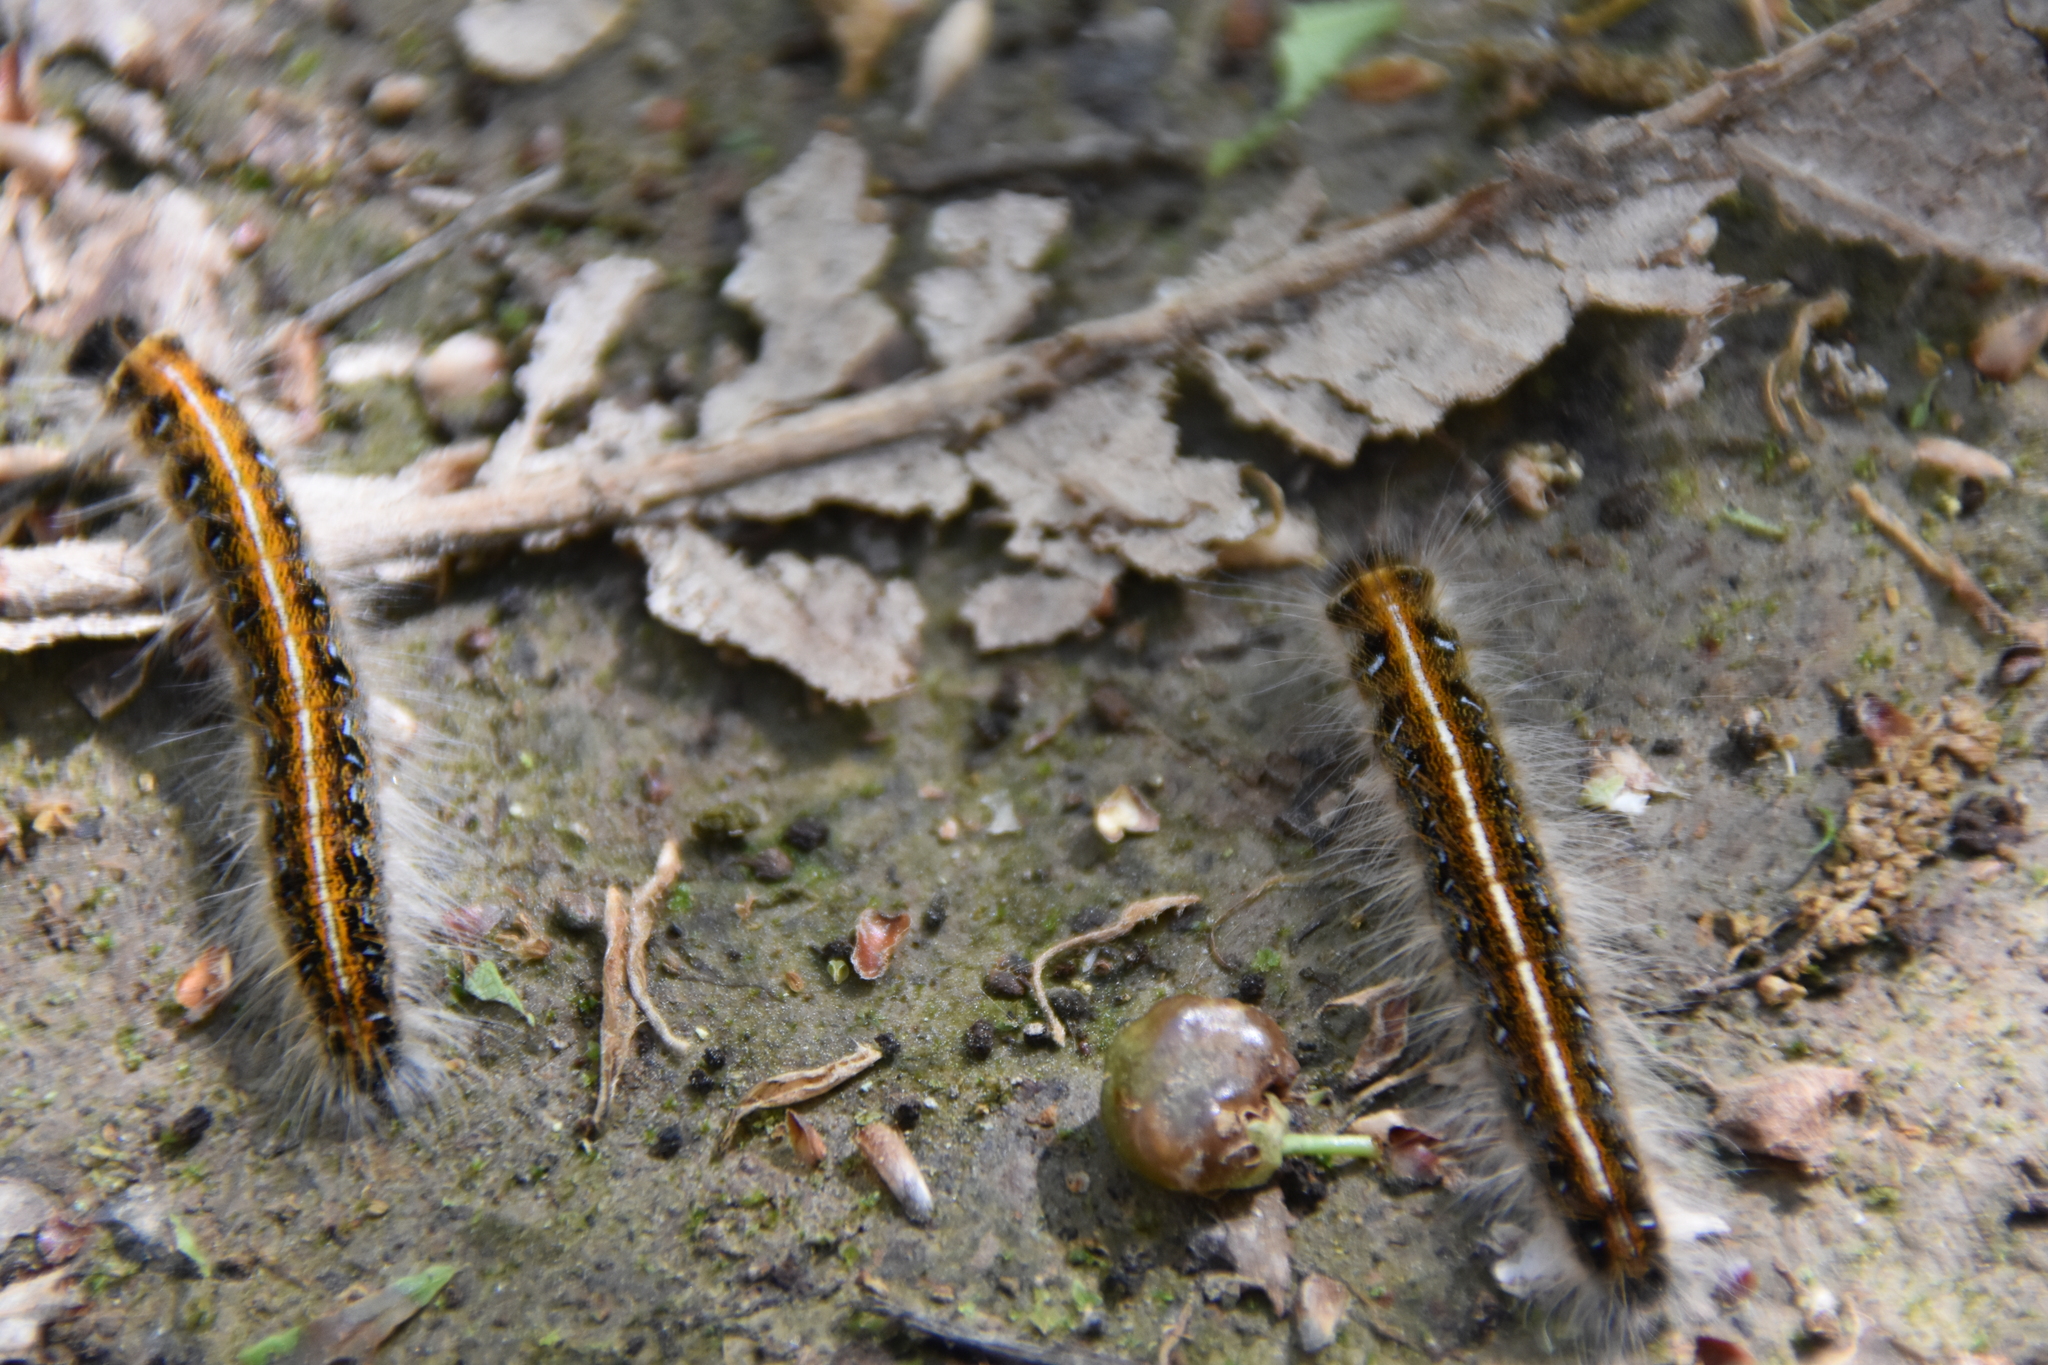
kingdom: Animalia
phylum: Arthropoda
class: Insecta
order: Lepidoptera
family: Lasiocampidae
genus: Malacosoma
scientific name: Malacosoma americana
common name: Eastern tent caterpillar moth
